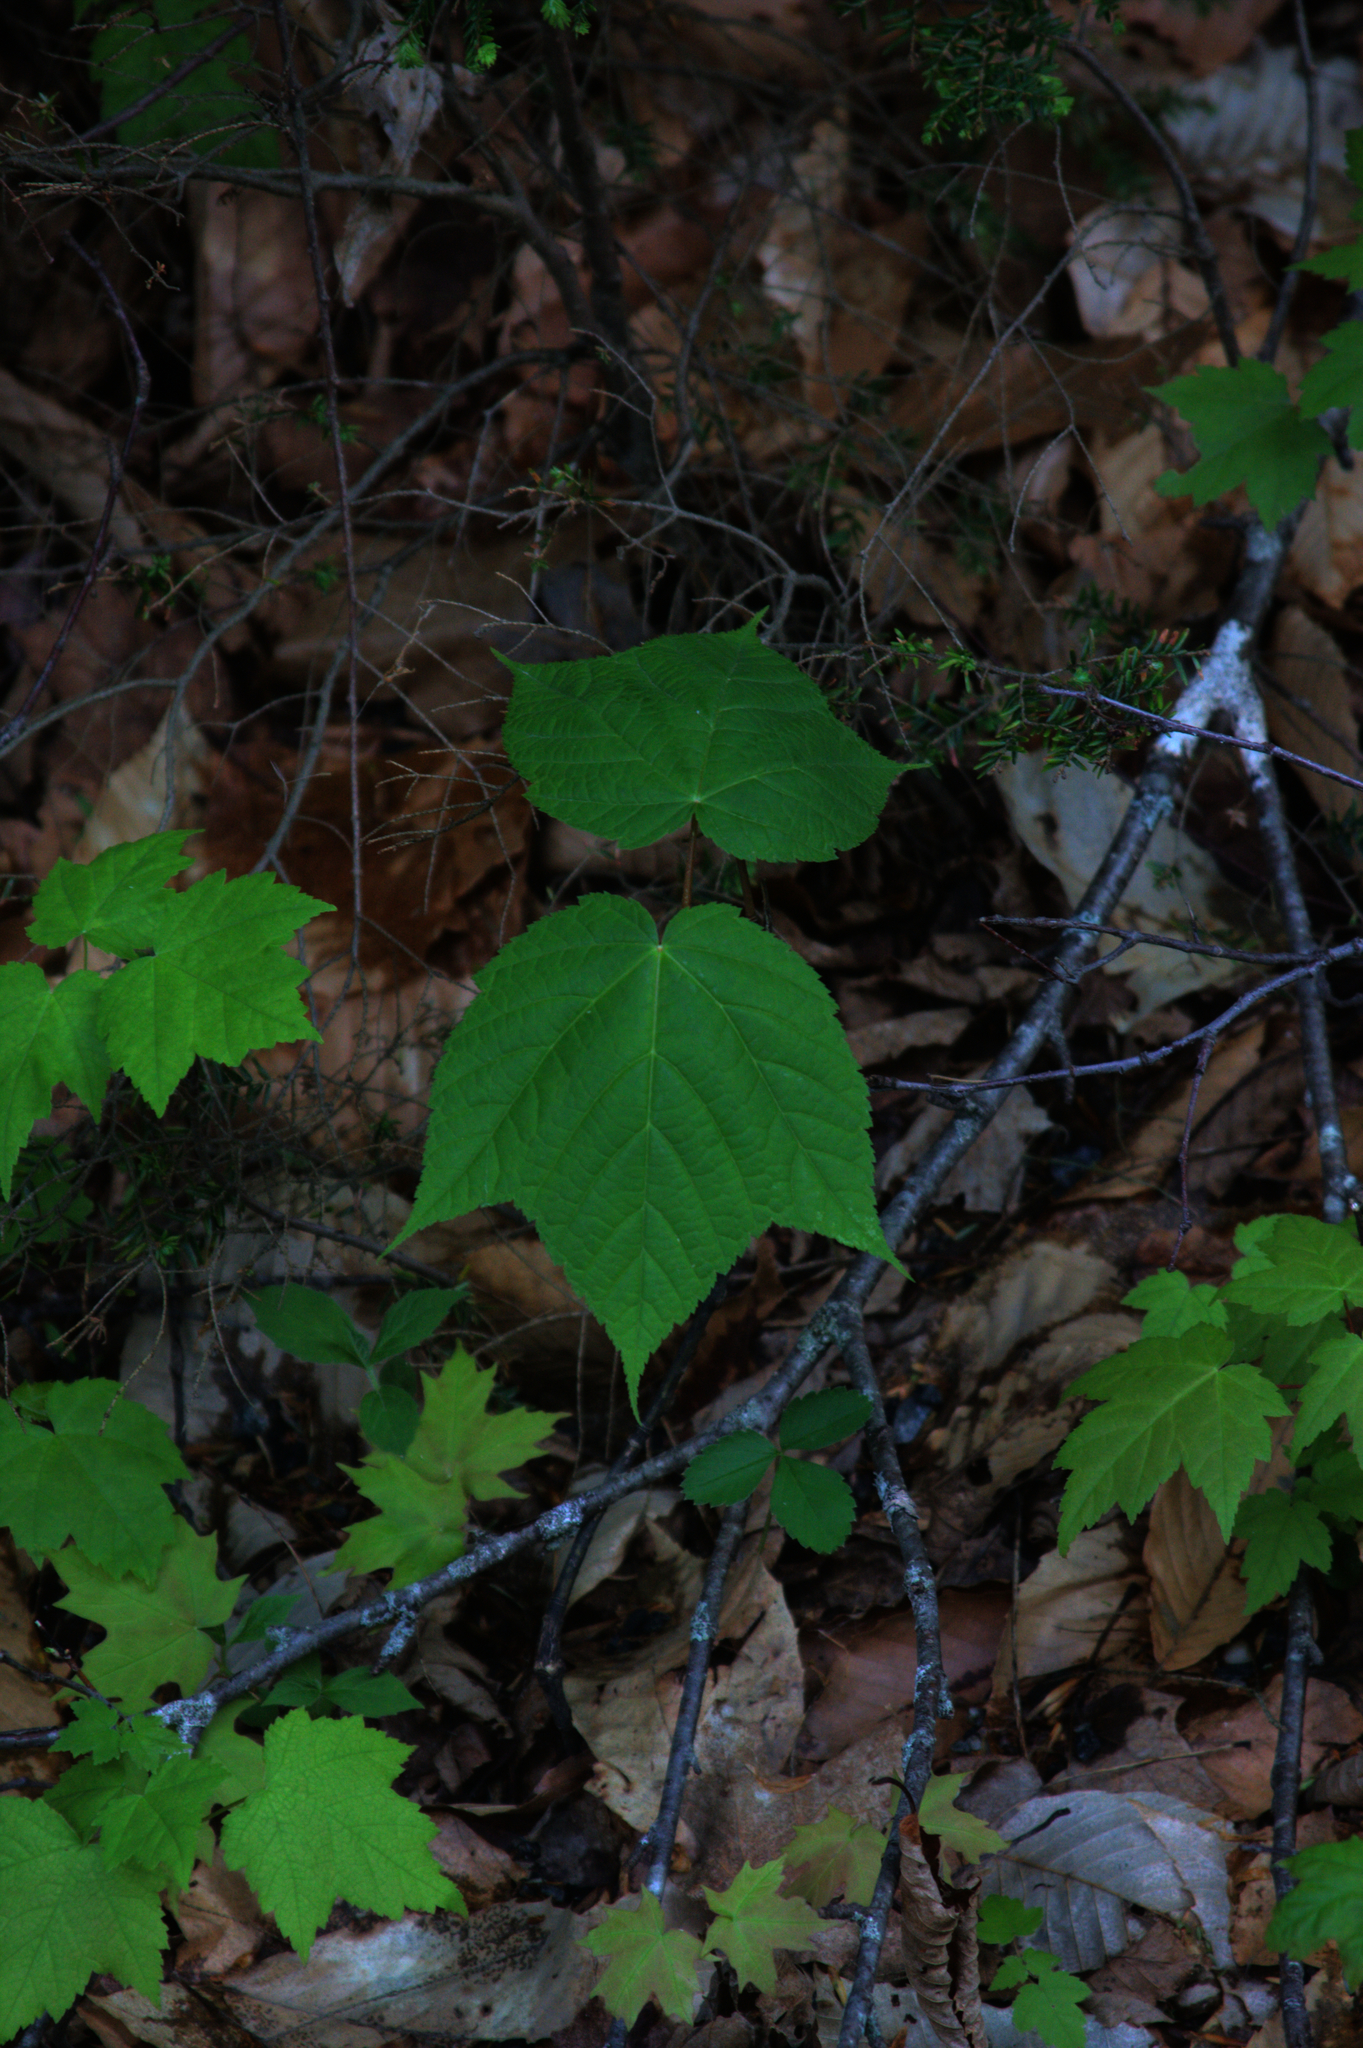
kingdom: Plantae
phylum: Tracheophyta
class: Magnoliopsida
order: Sapindales
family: Sapindaceae
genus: Acer
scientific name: Acer pensylvanicum
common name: Moosewood
